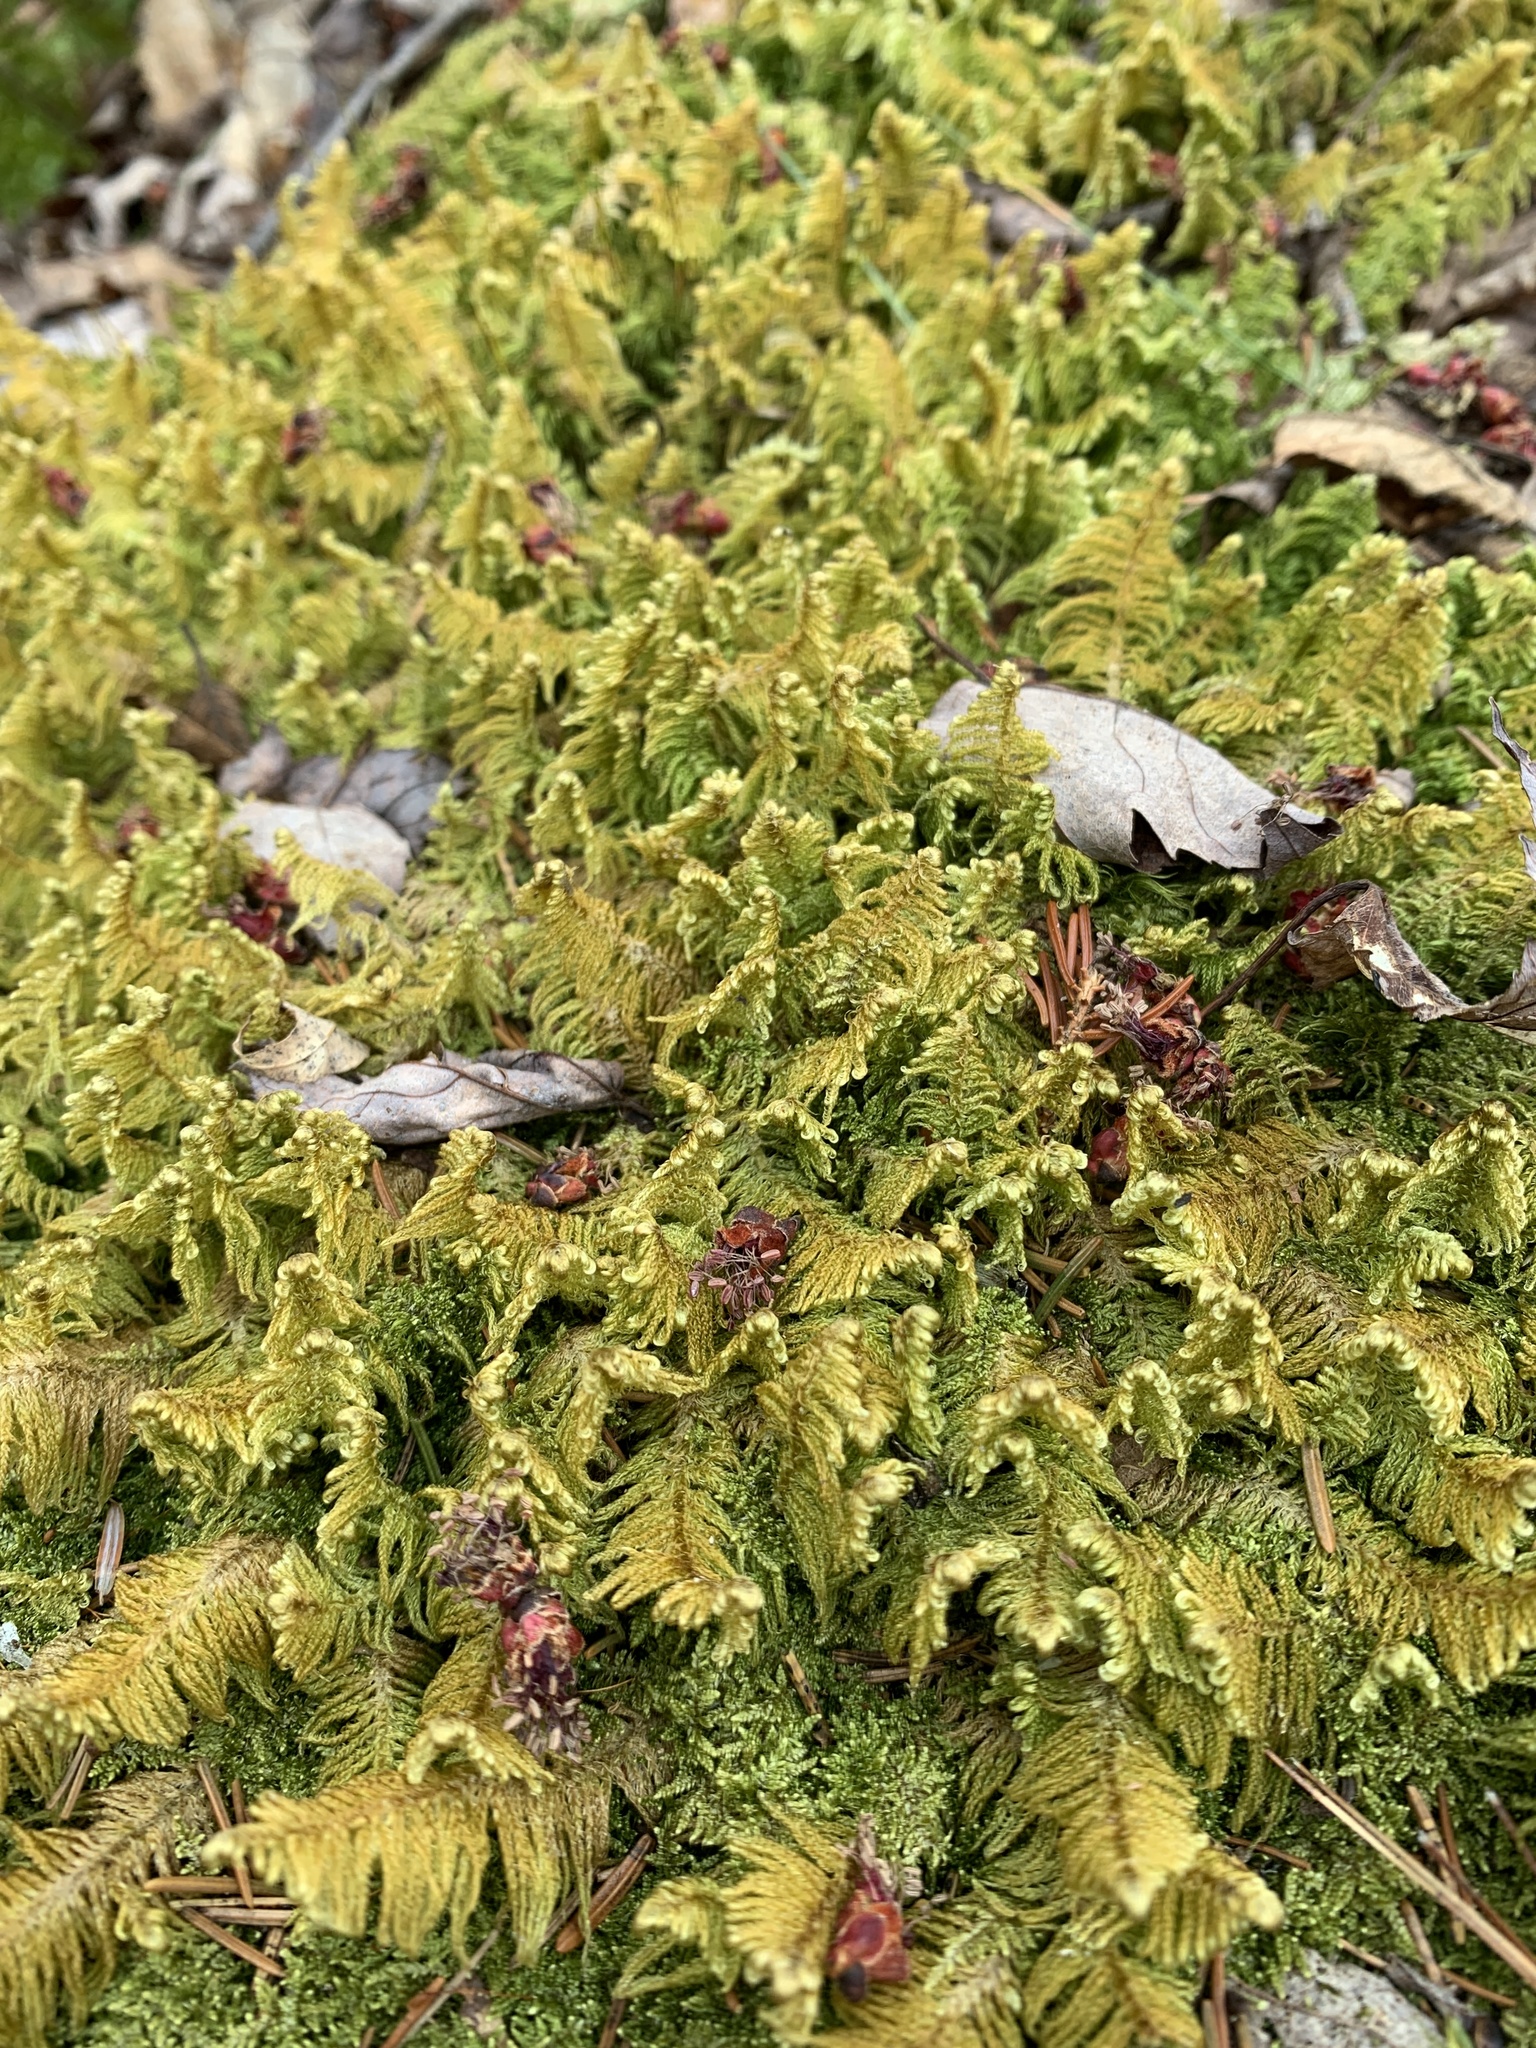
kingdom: Plantae
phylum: Bryophyta
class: Bryopsida
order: Hypnales
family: Pylaisiaceae
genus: Ptilium
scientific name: Ptilium crista-castrensis
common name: Knight's plume moss
